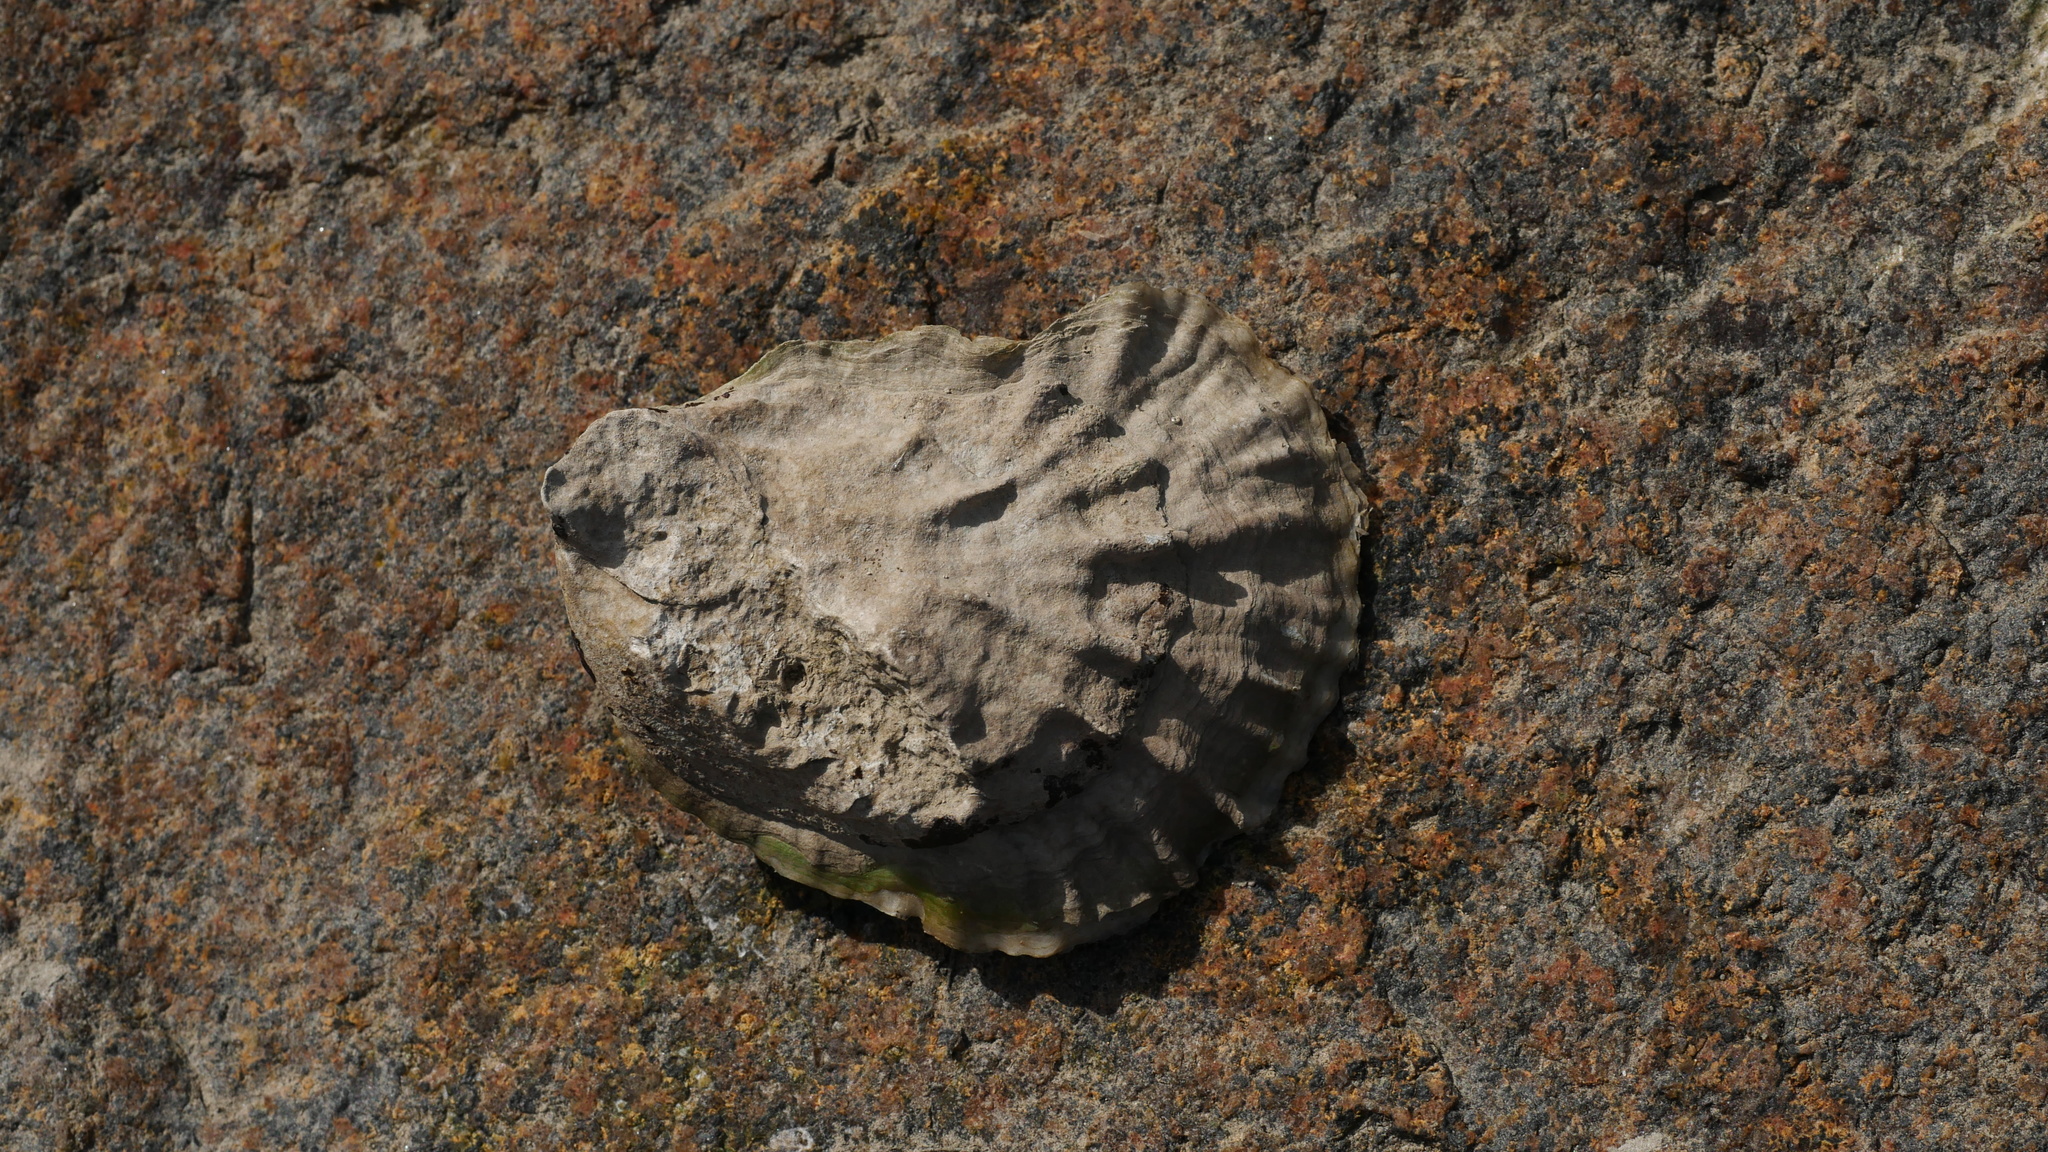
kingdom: Animalia
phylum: Mollusca
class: Bivalvia
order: Ostreida
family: Ostreidae
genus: Crassostrea
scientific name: Crassostrea virginica
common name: American oyster
